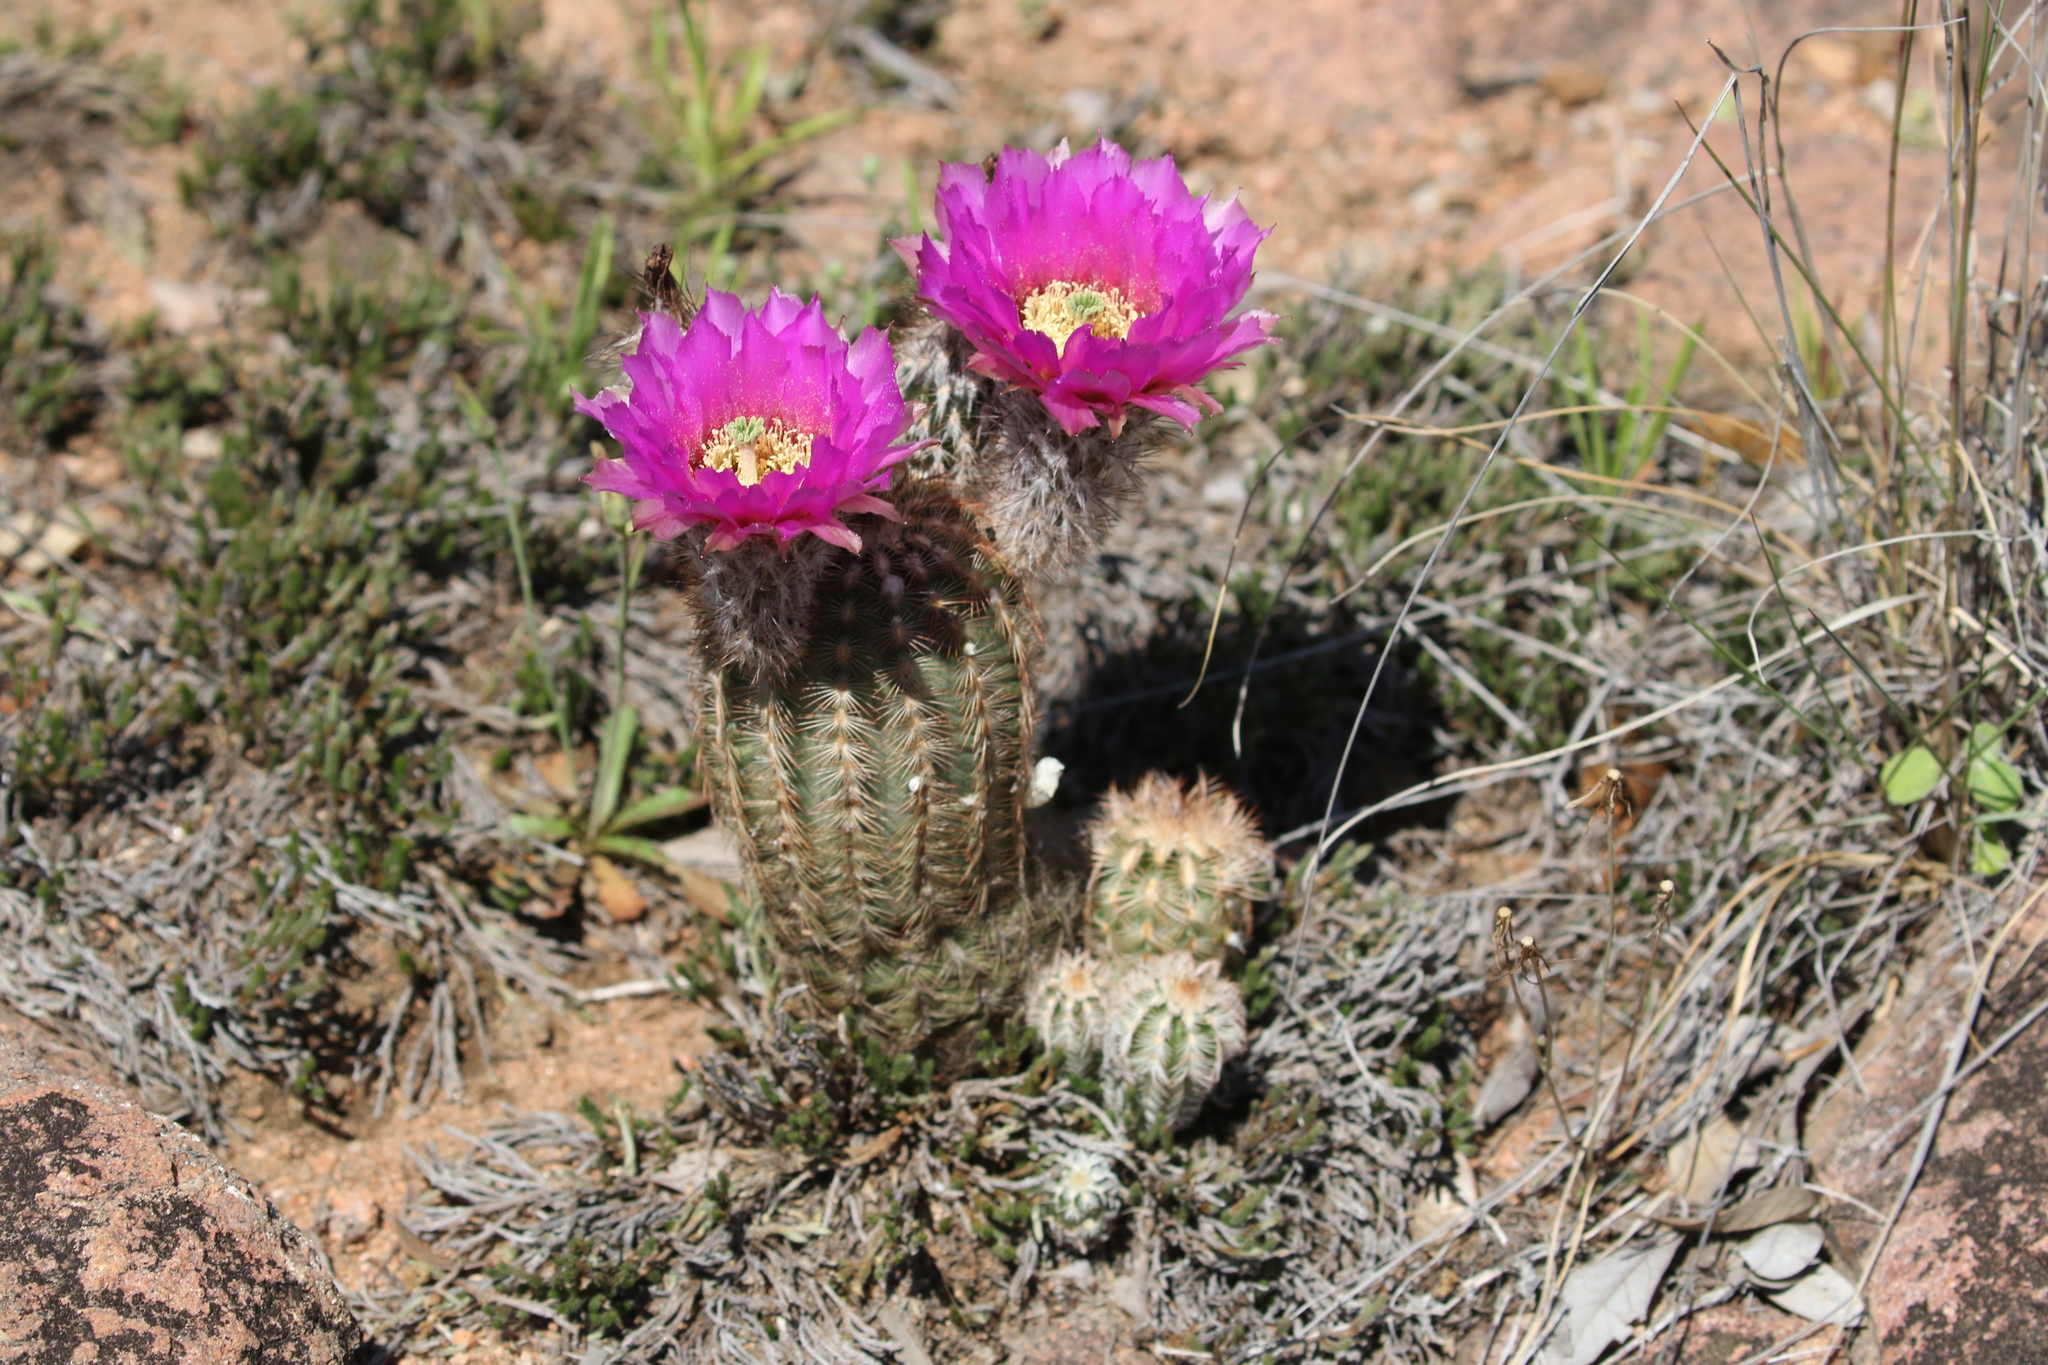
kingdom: Plantae
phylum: Tracheophyta
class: Magnoliopsida
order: Caryophyllales
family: Cactaceae
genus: Echinocereus
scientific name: Echinocereus reichenbachii
